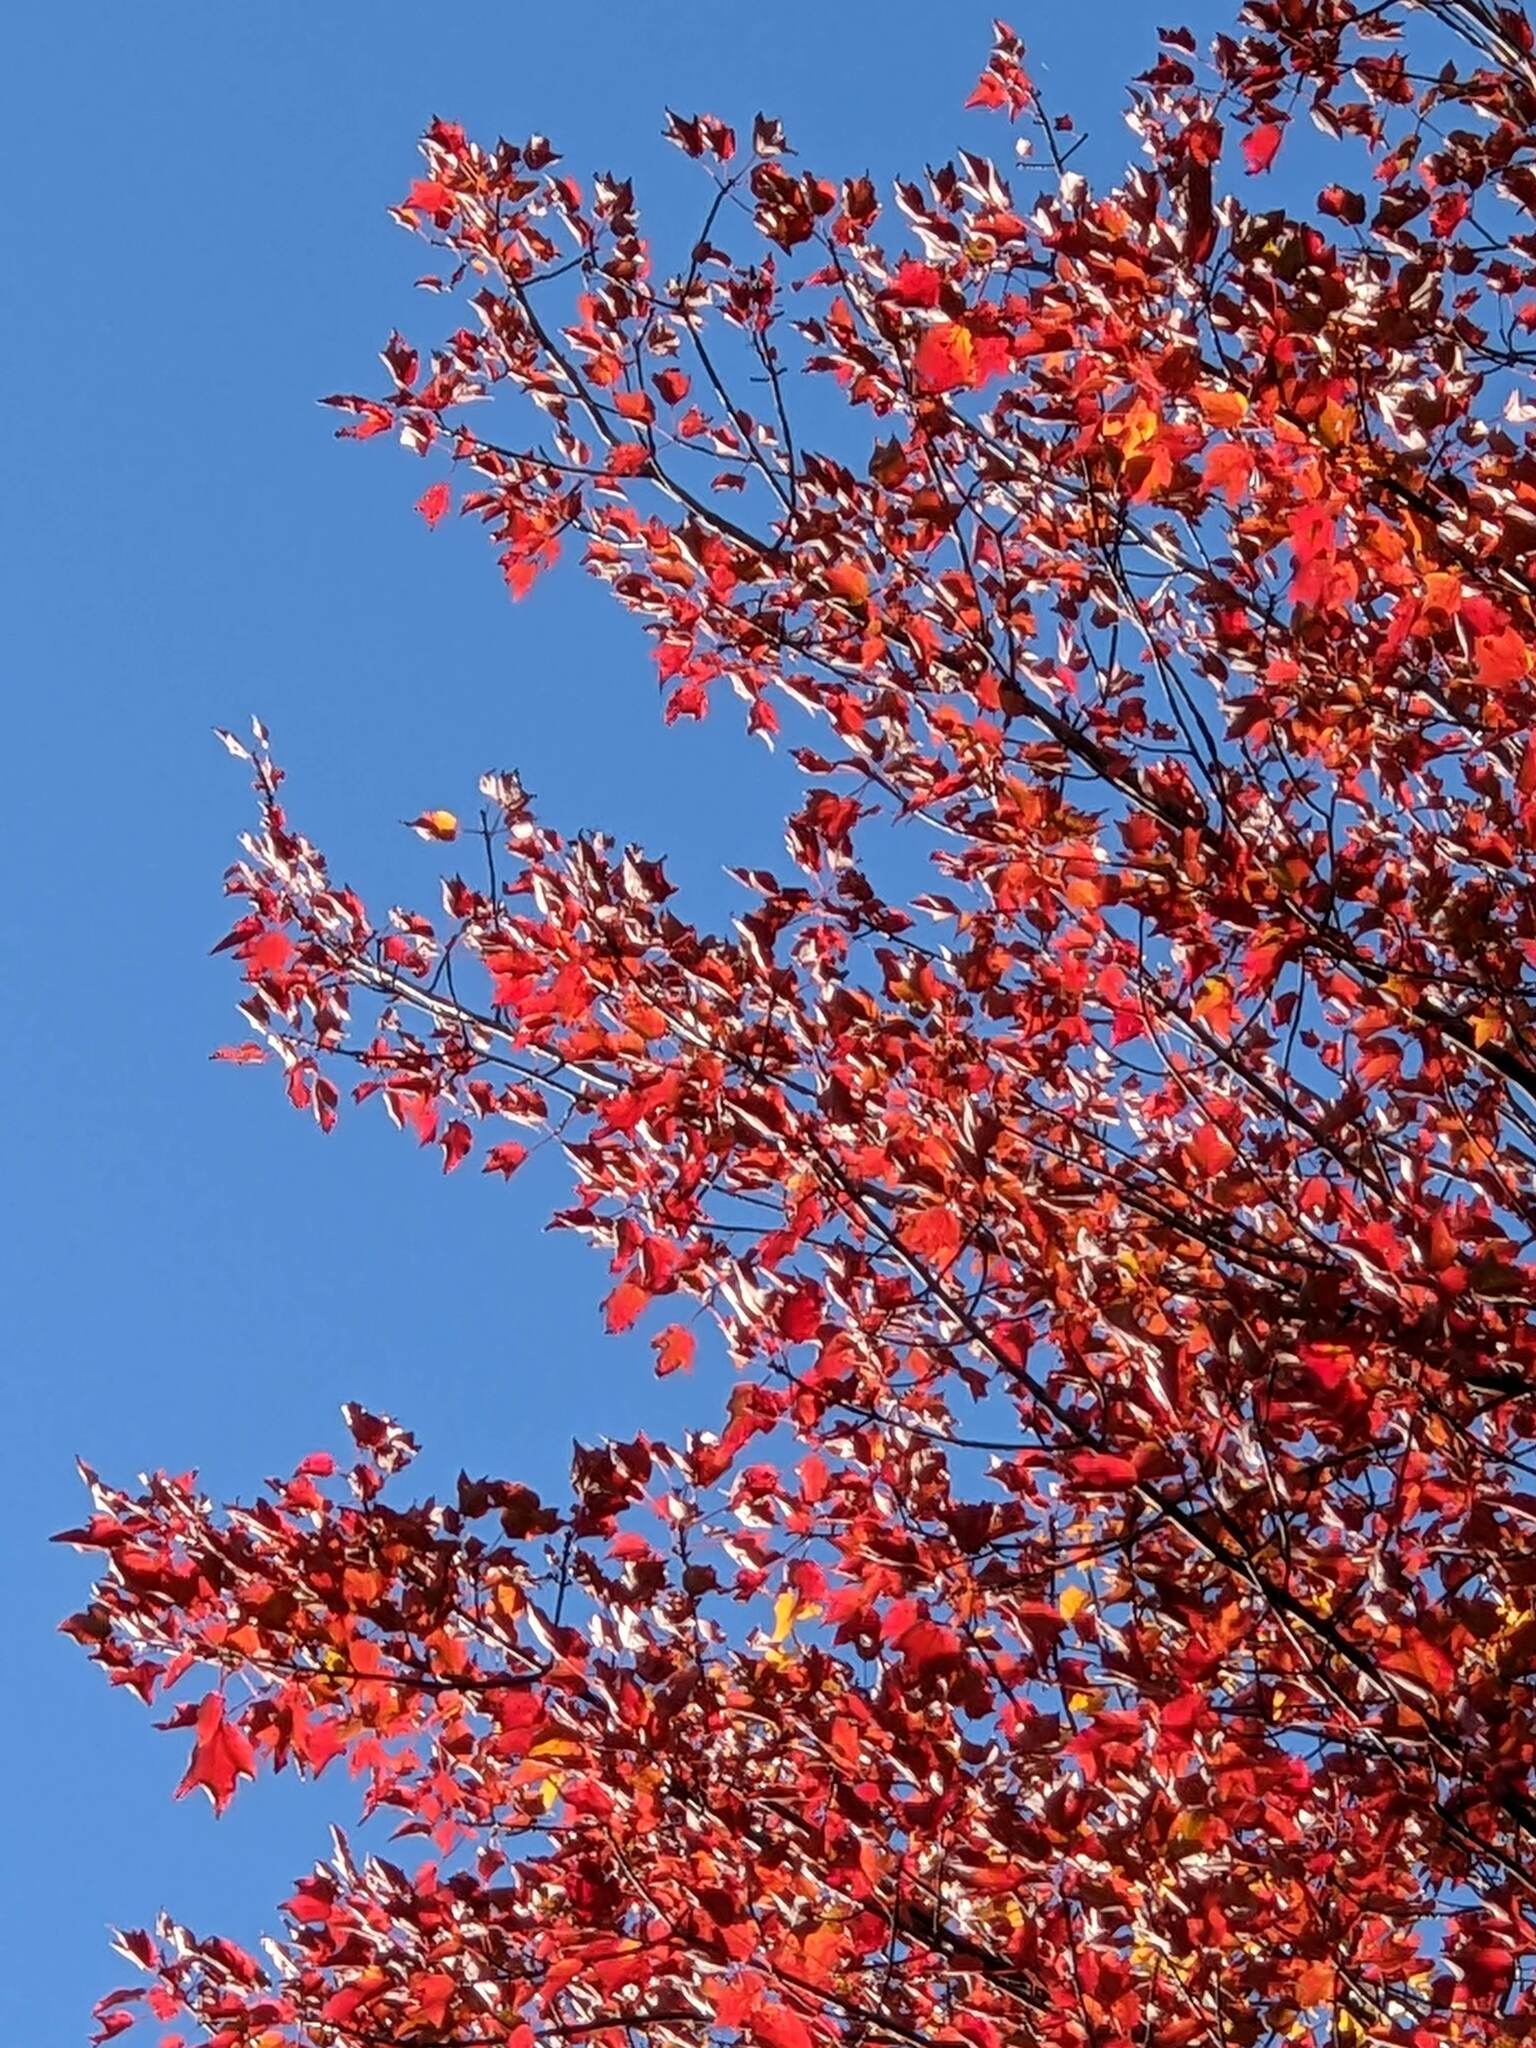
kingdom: Plantae
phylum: Tracheophyta
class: Magnoliopsida
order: Sapindales
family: Sapindaceae
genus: Acer
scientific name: Acer rubrum
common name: Red maple
